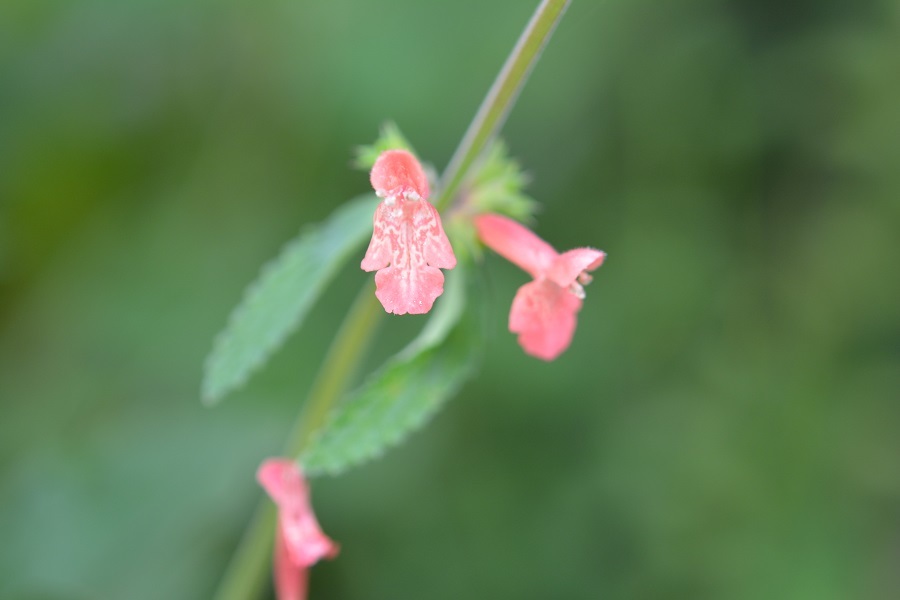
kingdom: Plantae
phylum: Tracheophyta
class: Magnoliopsida
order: Lamiales
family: Lamiaceae
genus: Stachys
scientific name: Stachys coccinea
